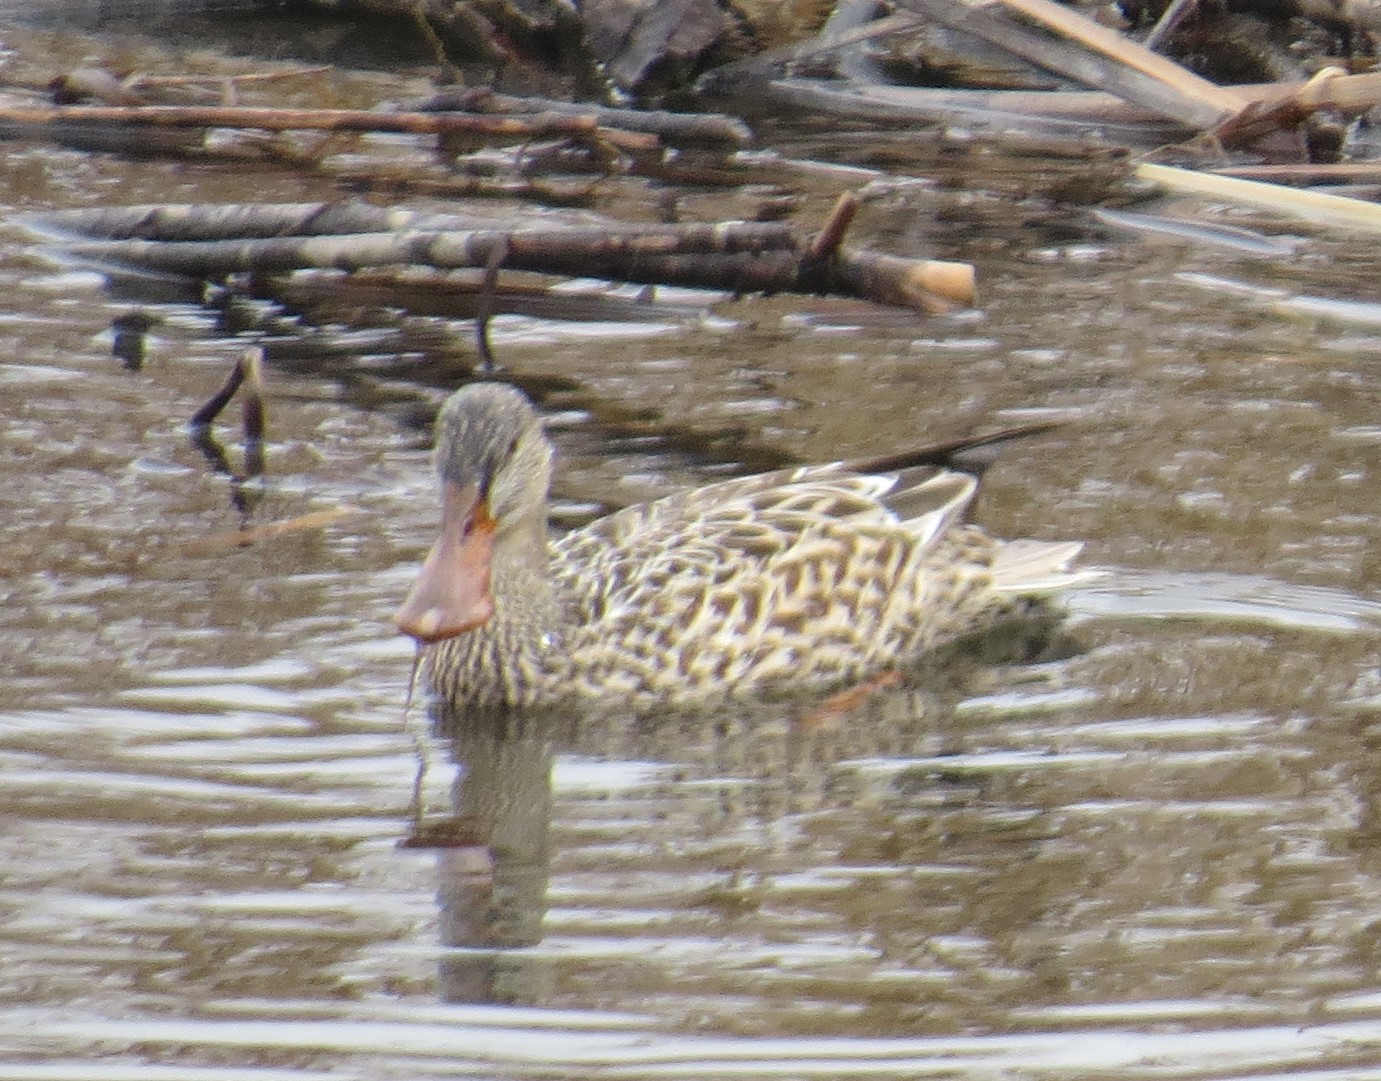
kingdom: Animalia
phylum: Chordata
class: Aves
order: Anseriformes
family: Anatidae
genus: Spatula
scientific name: Spatula clypeata
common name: Northern shoveler
